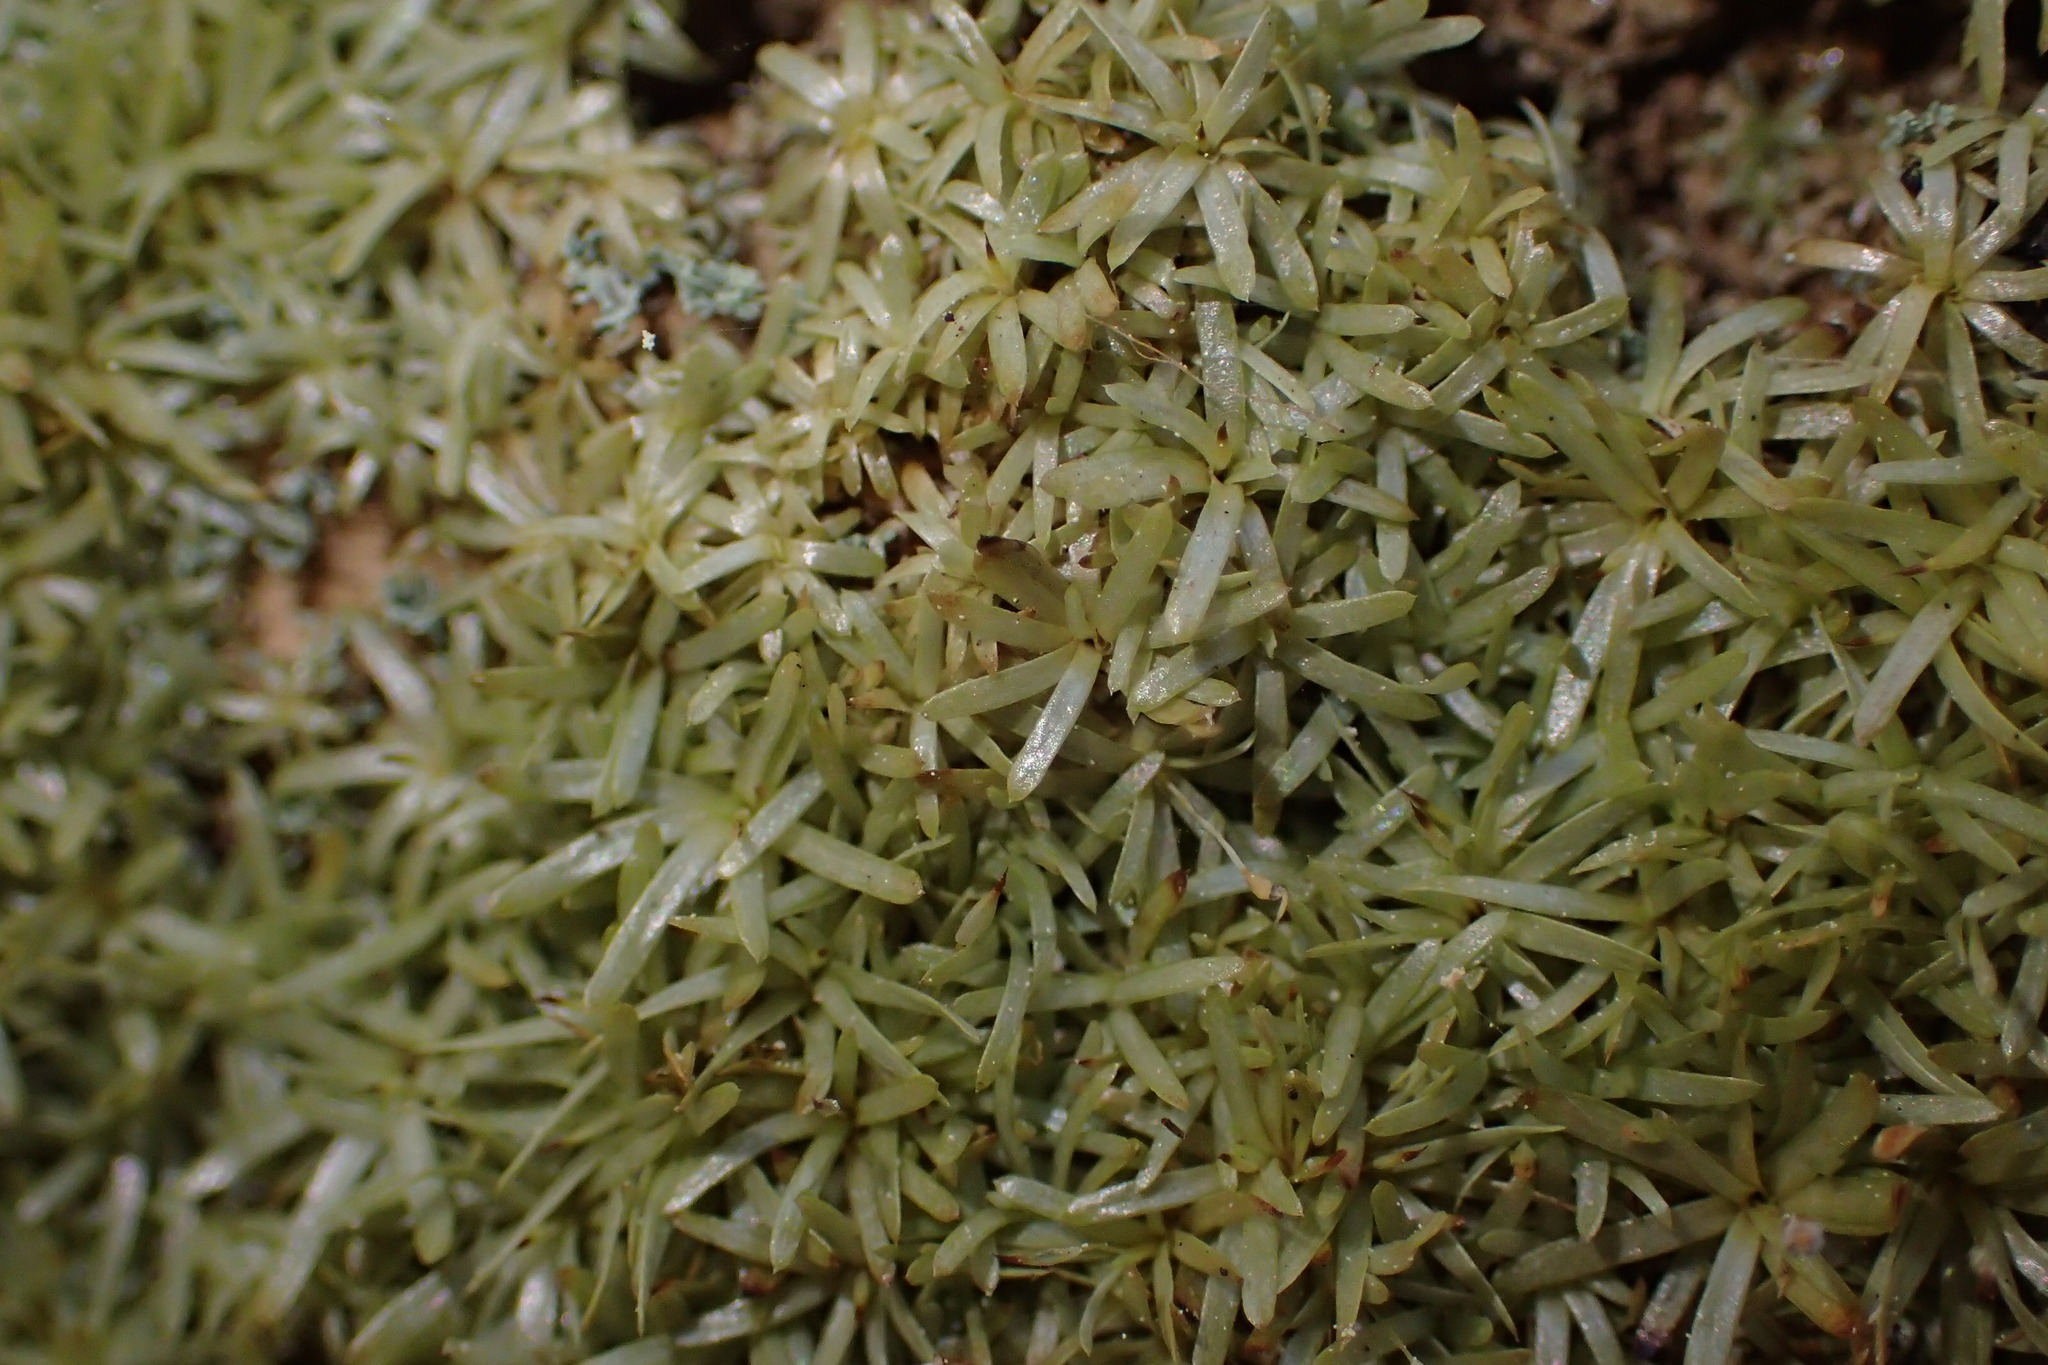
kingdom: Plantae
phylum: Bryophyta
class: Bryopsida
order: Dicranales
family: Octoblepharaceae
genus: Octoblepharum
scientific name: Octoblepharum albidum
